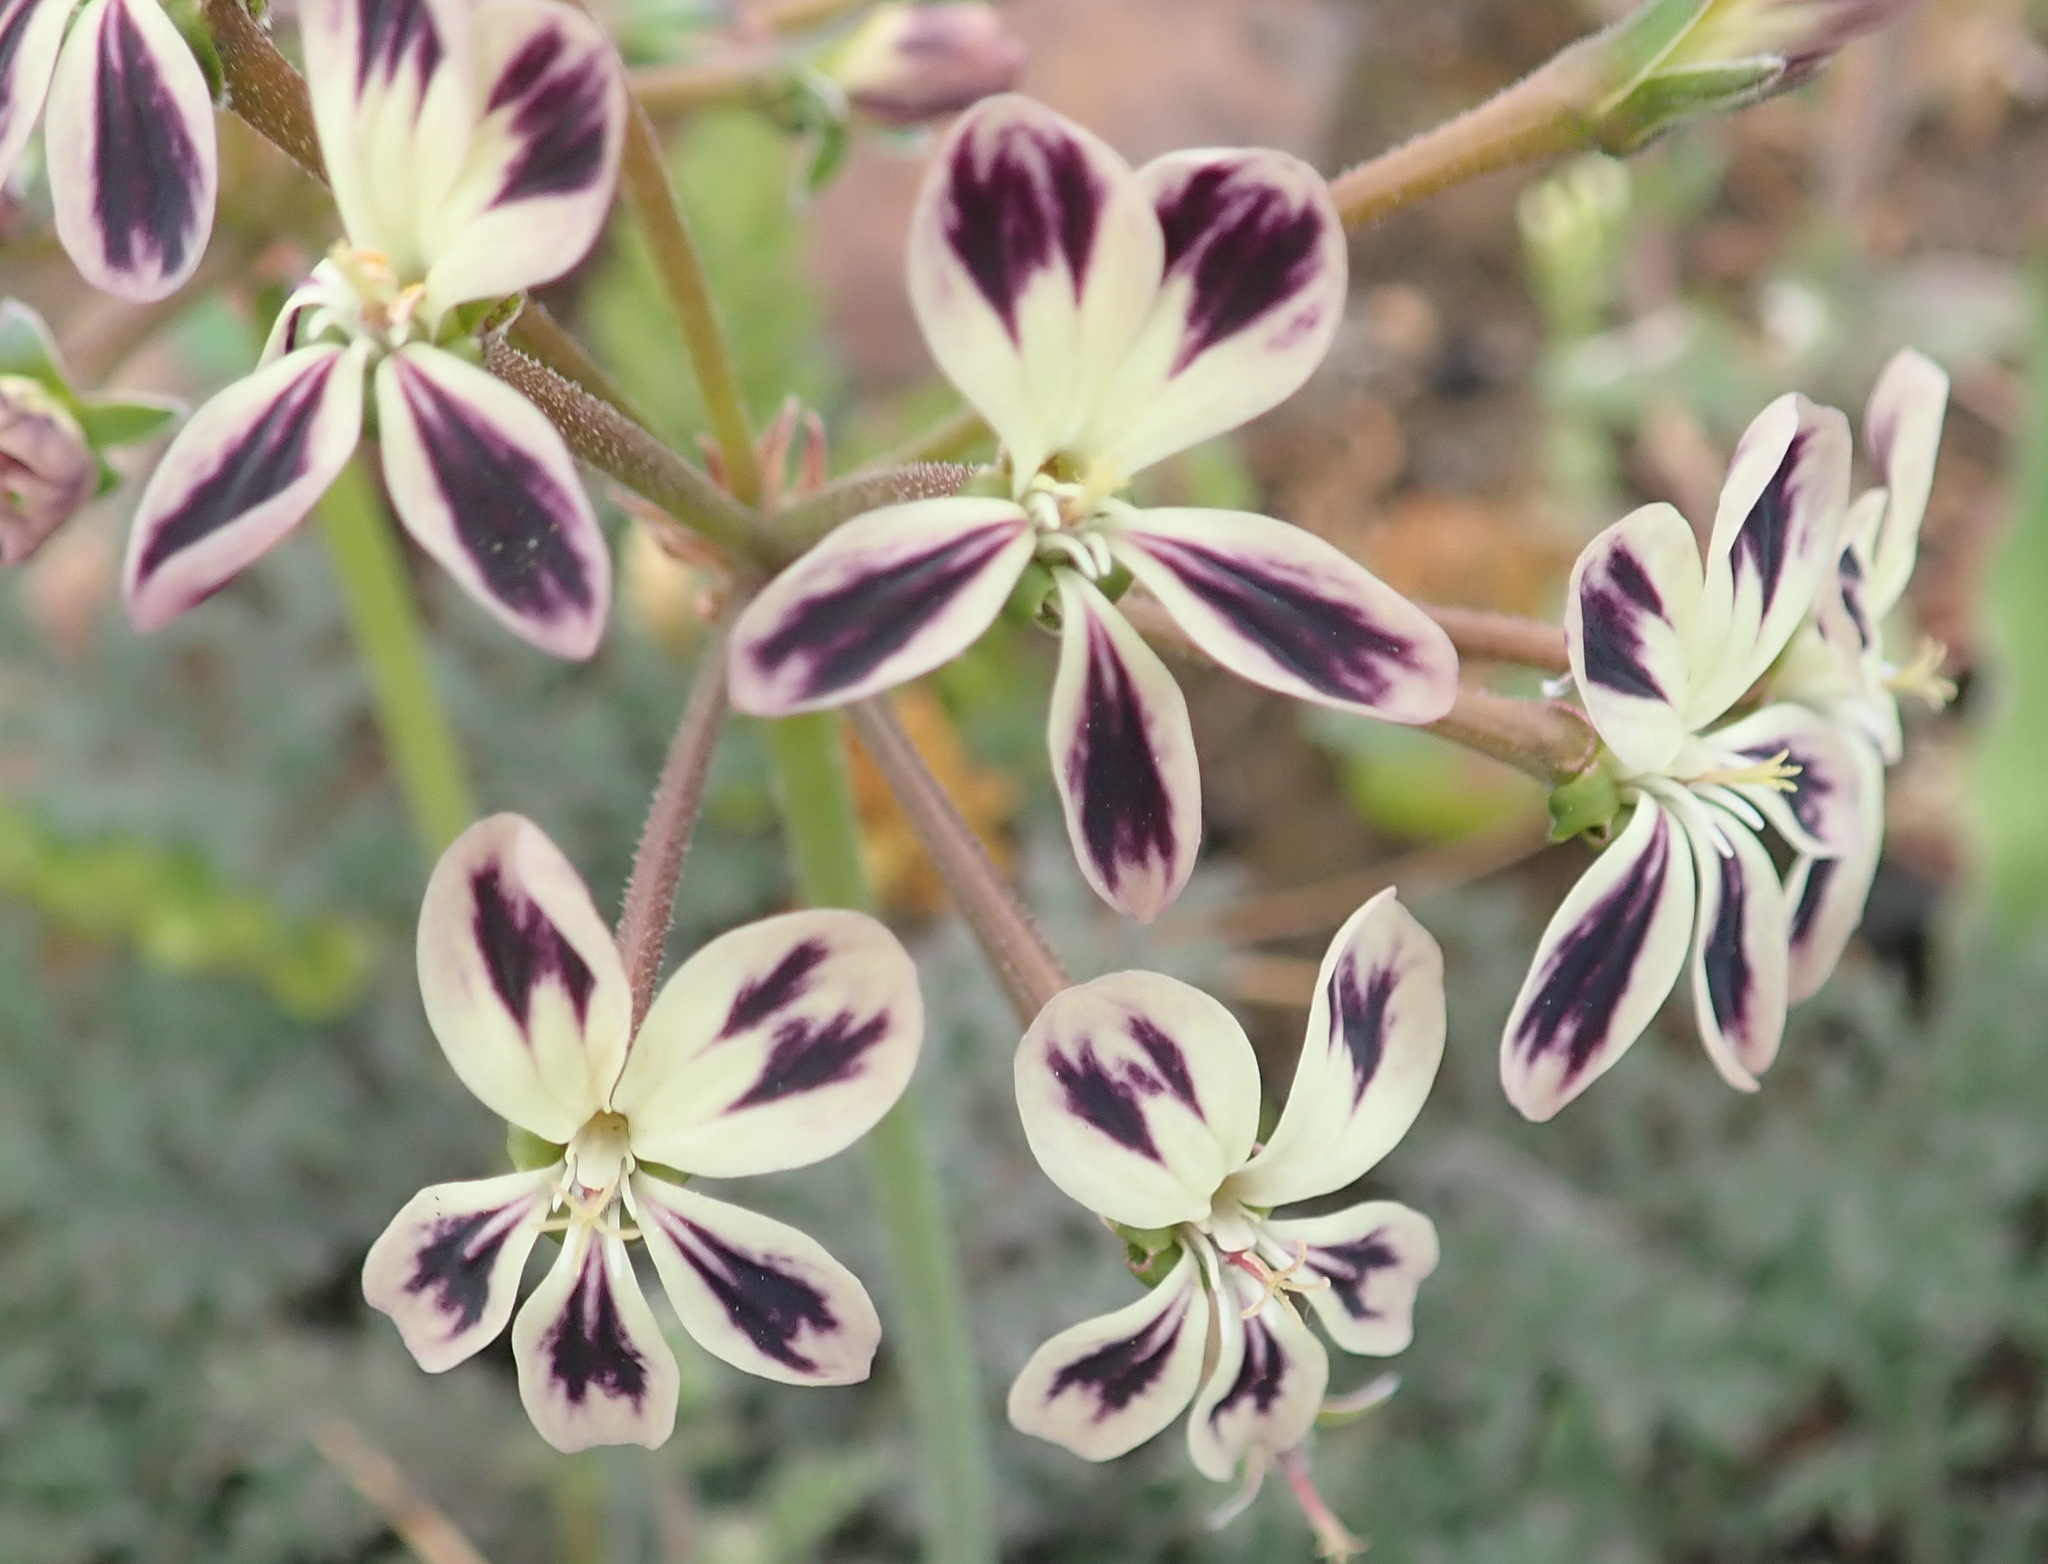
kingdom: Plantae
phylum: Tracheophyta
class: Magnoliopsida
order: Geraniales
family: Geraniaceae
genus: Pelargonium
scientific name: Pelargonium triste
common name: Night-scent pelargonium
